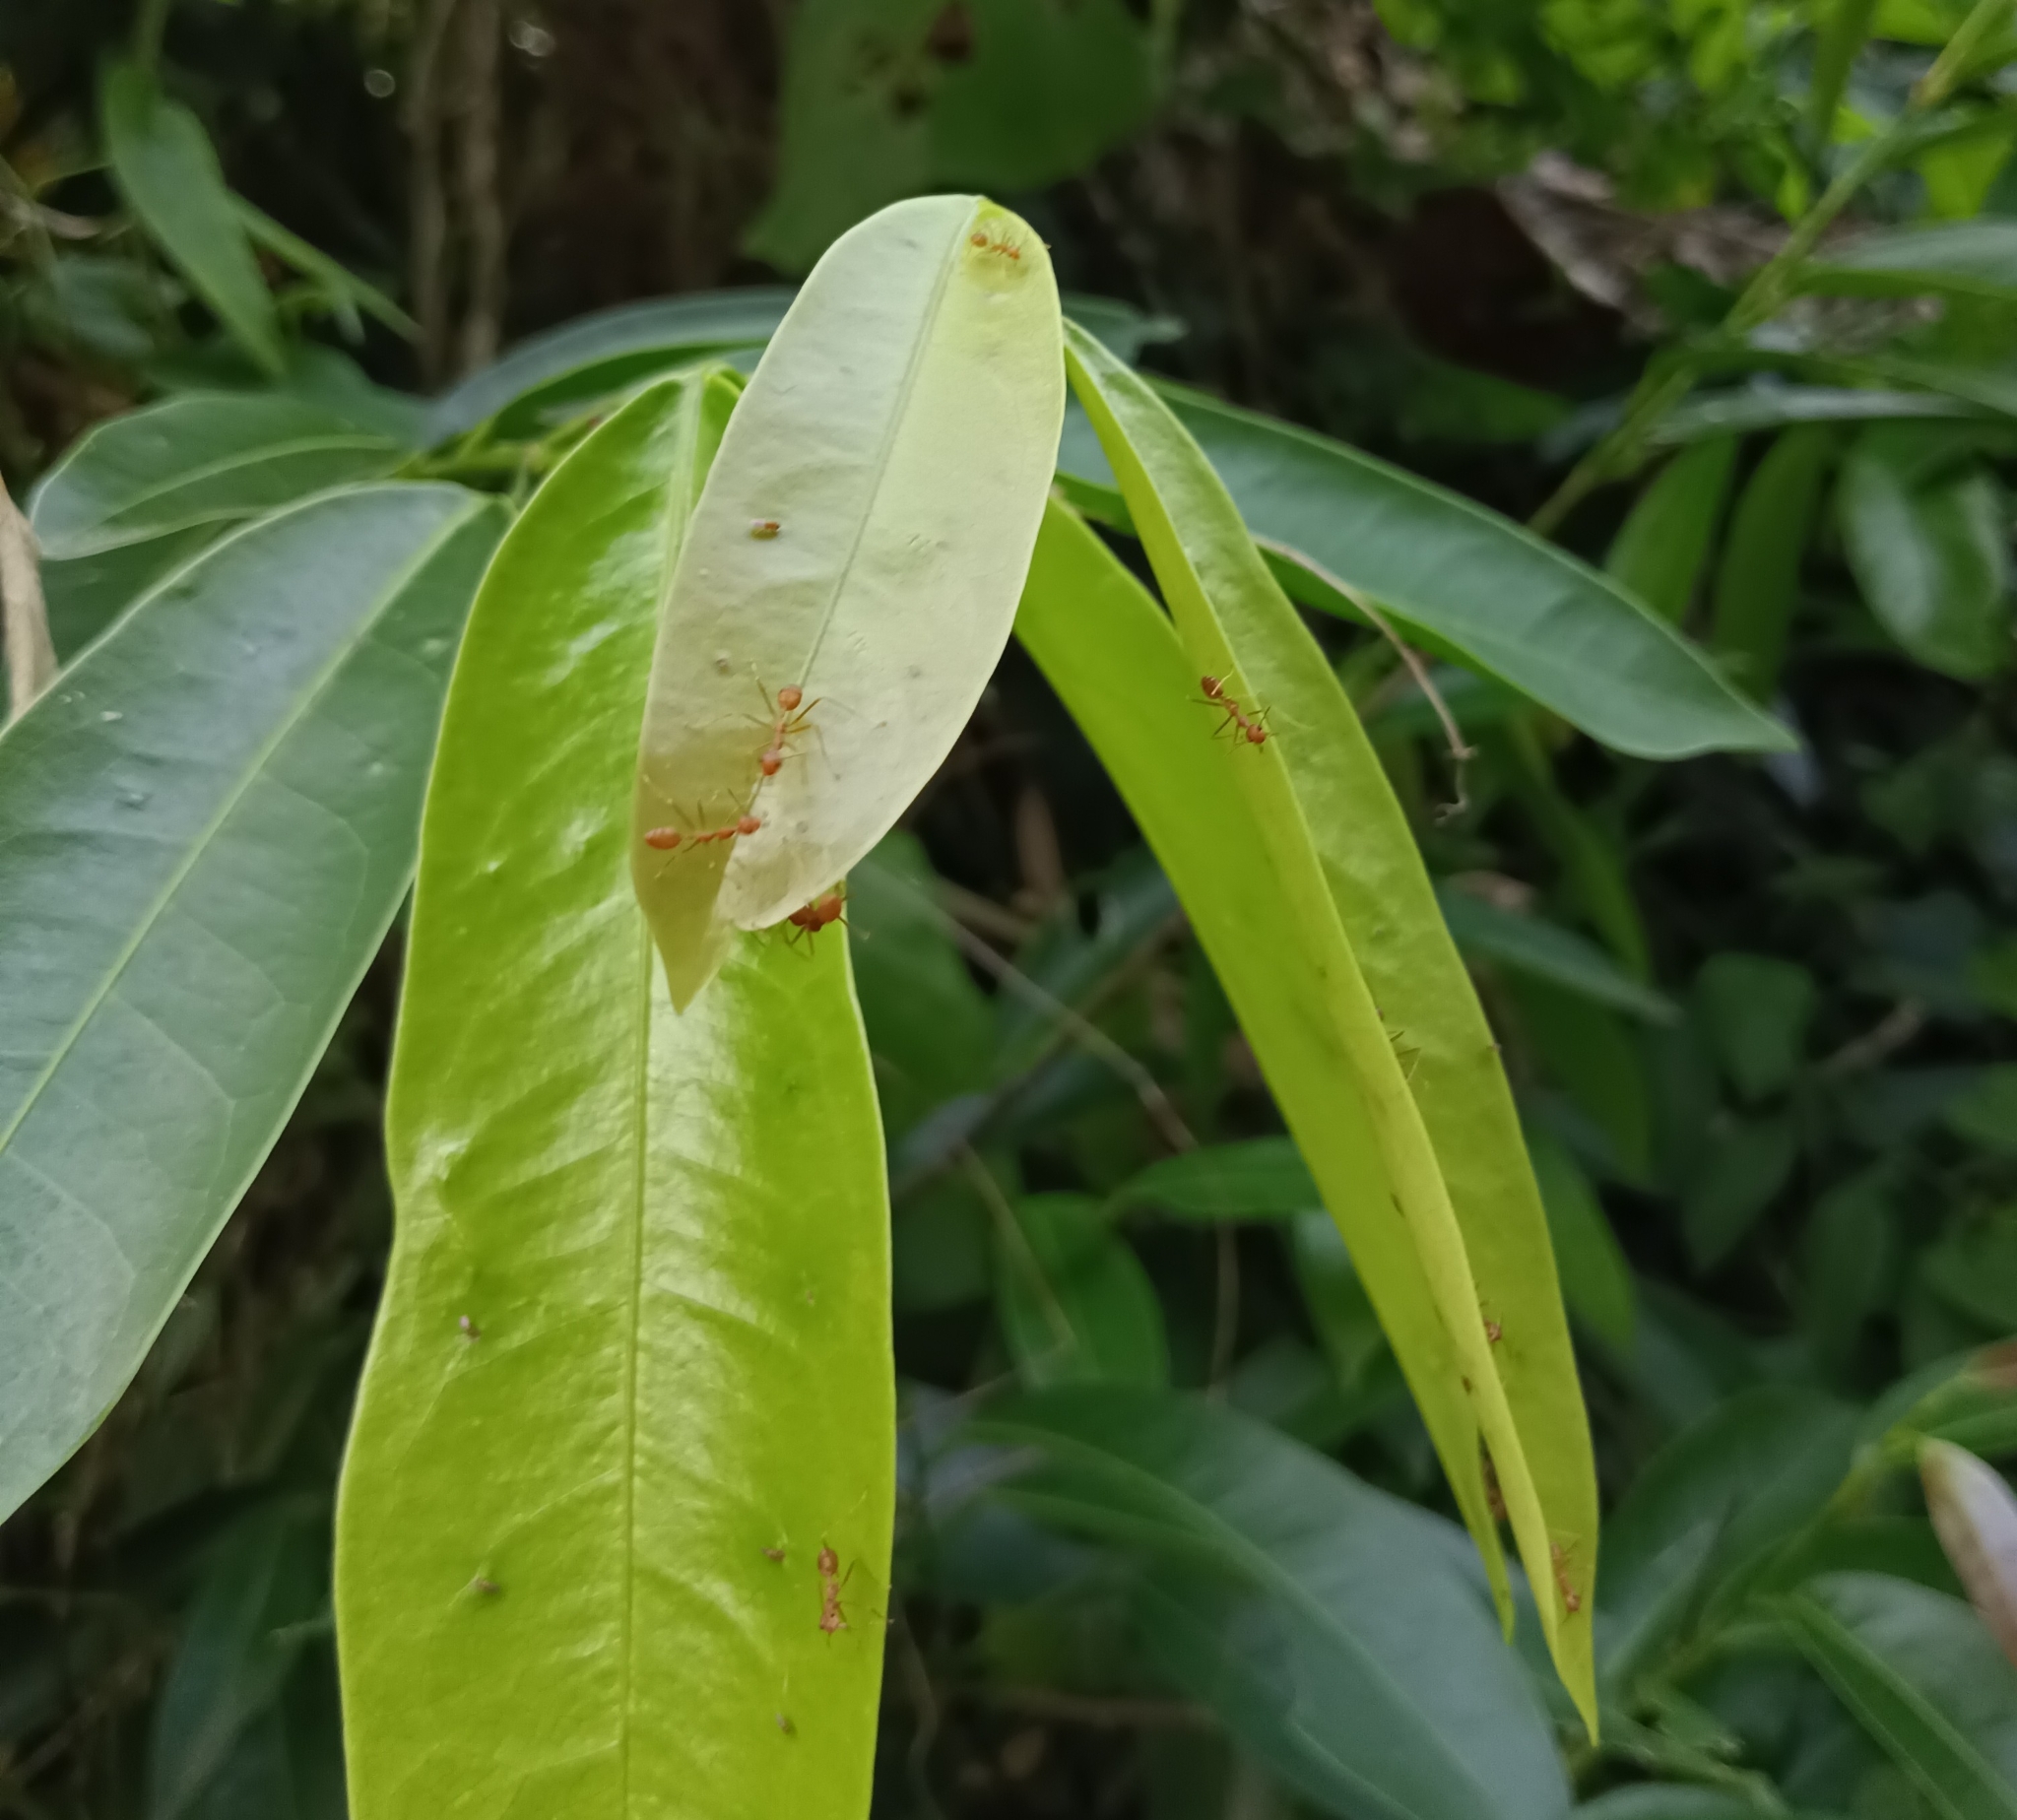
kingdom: Animalia
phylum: Arthropoda
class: Insecta
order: Hymenoptera
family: Formicidae
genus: Oecophylla
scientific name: Oecophylla smaragdina
